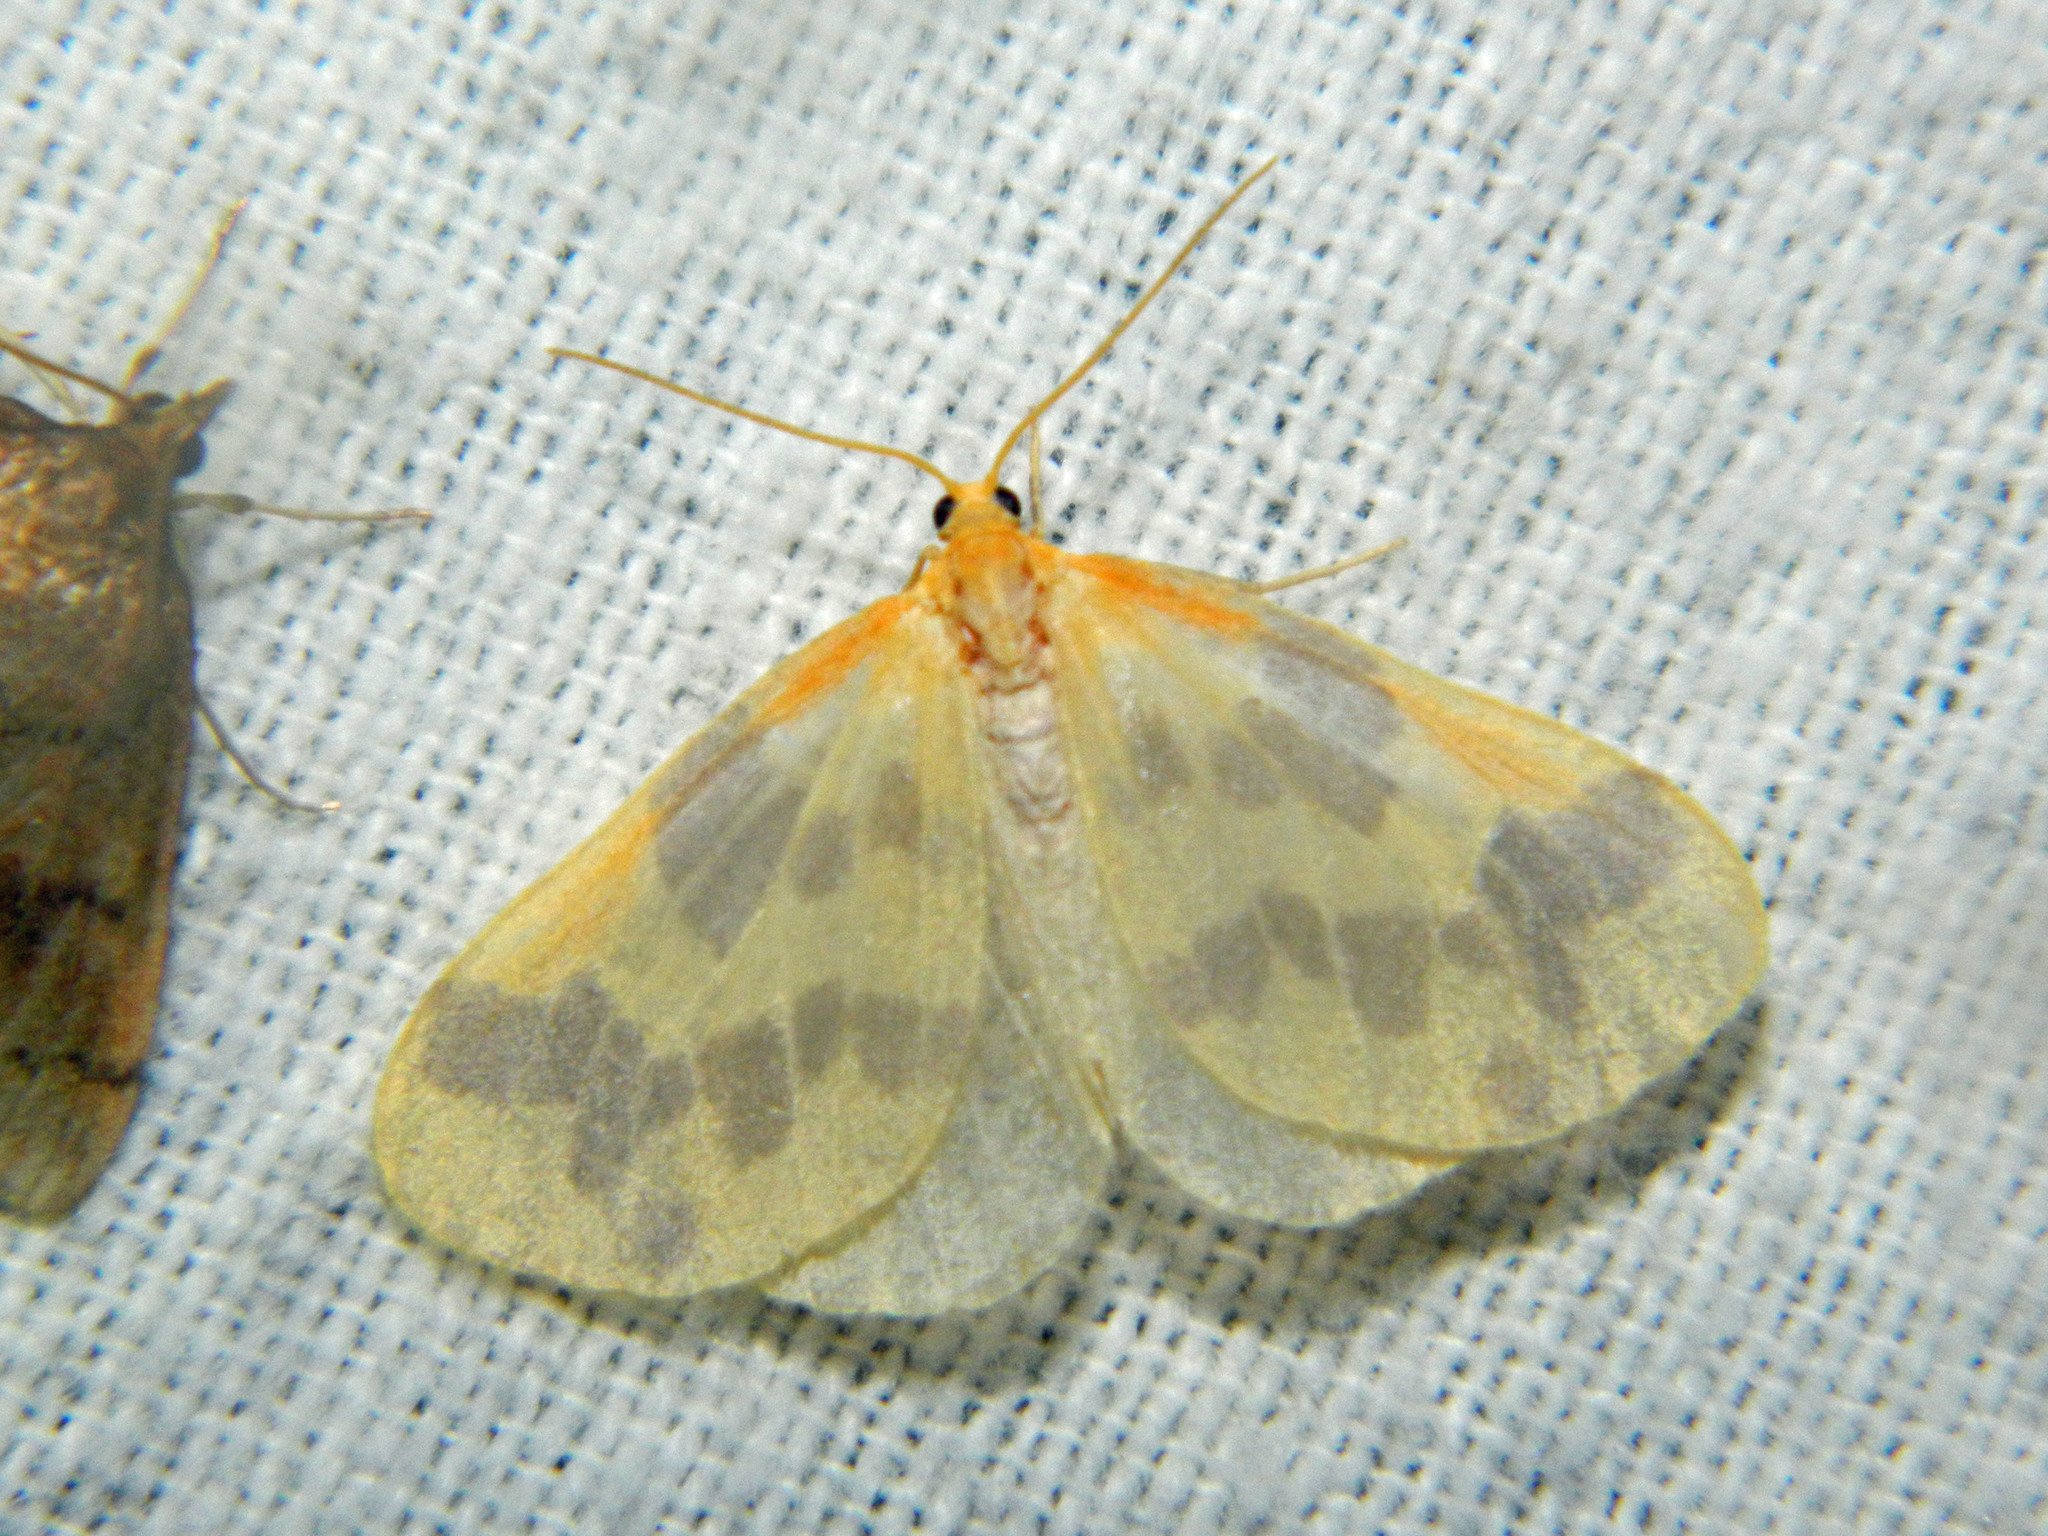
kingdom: Animalia
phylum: Arthropoda
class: Insecta
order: Lepidoptera
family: Geometridae
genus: Eubaphe
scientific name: Eubaphe mendica
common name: Beggar
